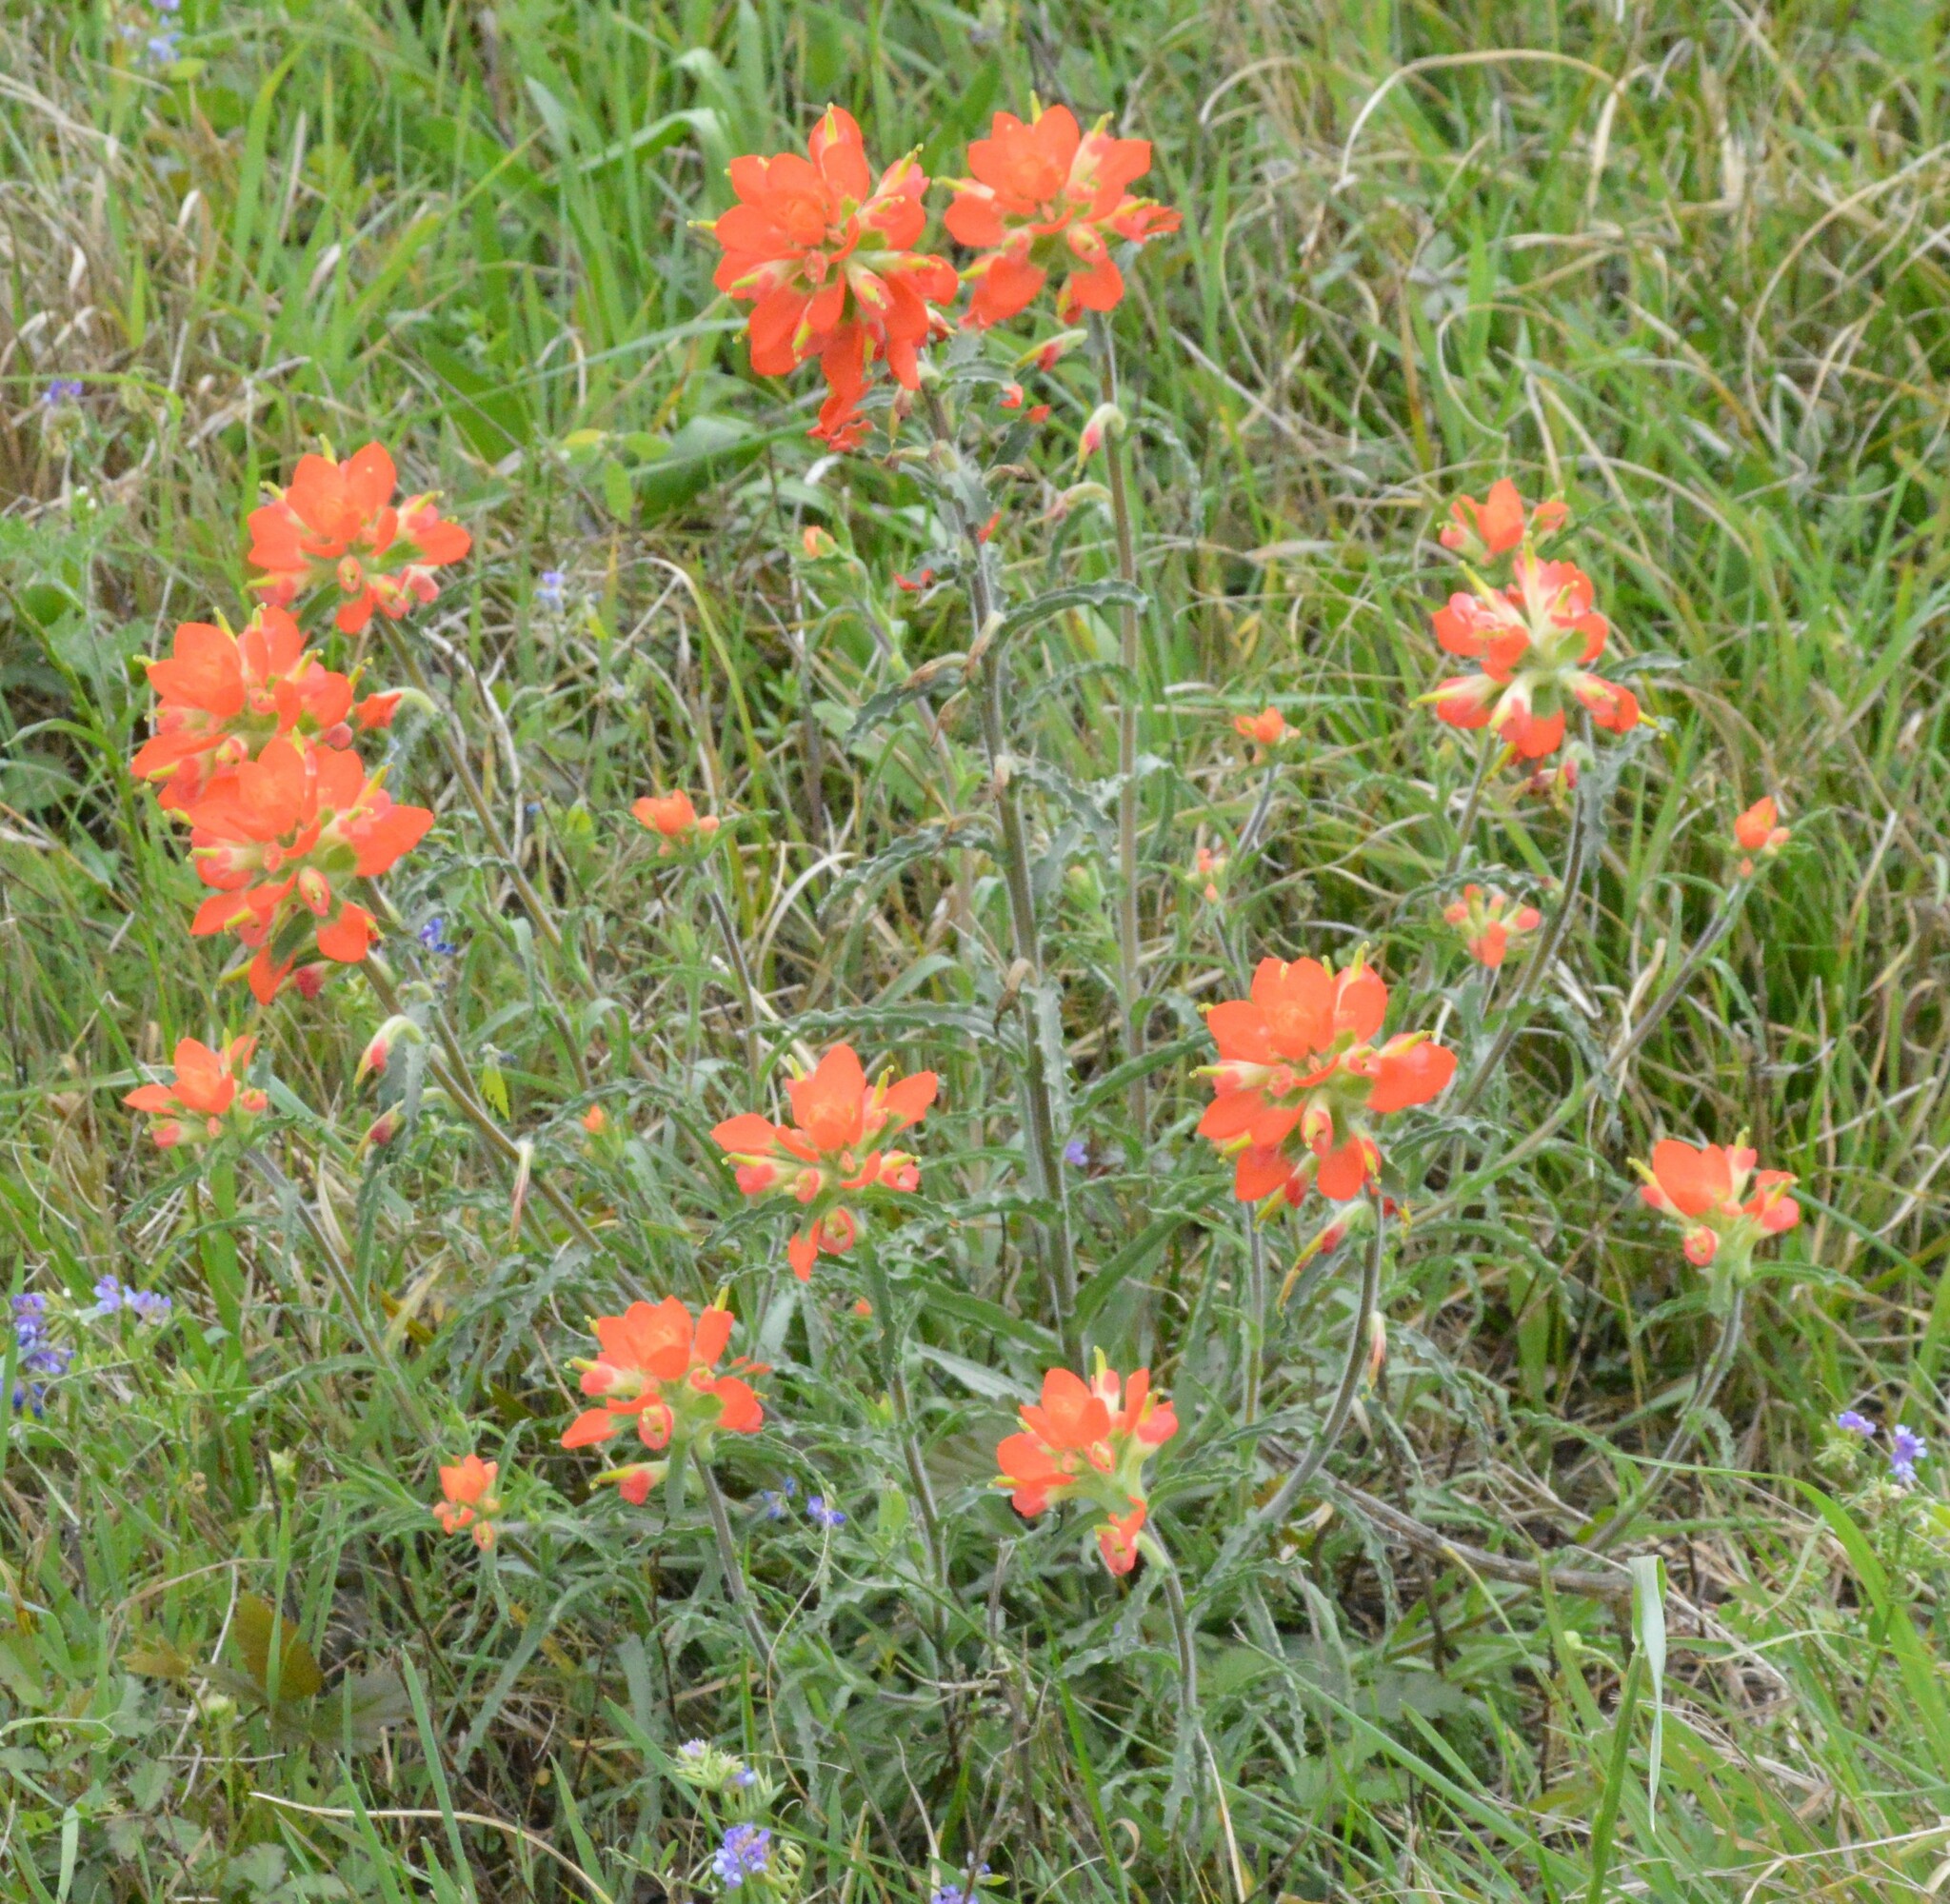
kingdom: Plantae
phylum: Tracheophyta
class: Magnoliopsida
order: Lamiales
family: Orobanchaceae
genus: Castilleja
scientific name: Castilleja indivisa
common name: Texas paintbrush
